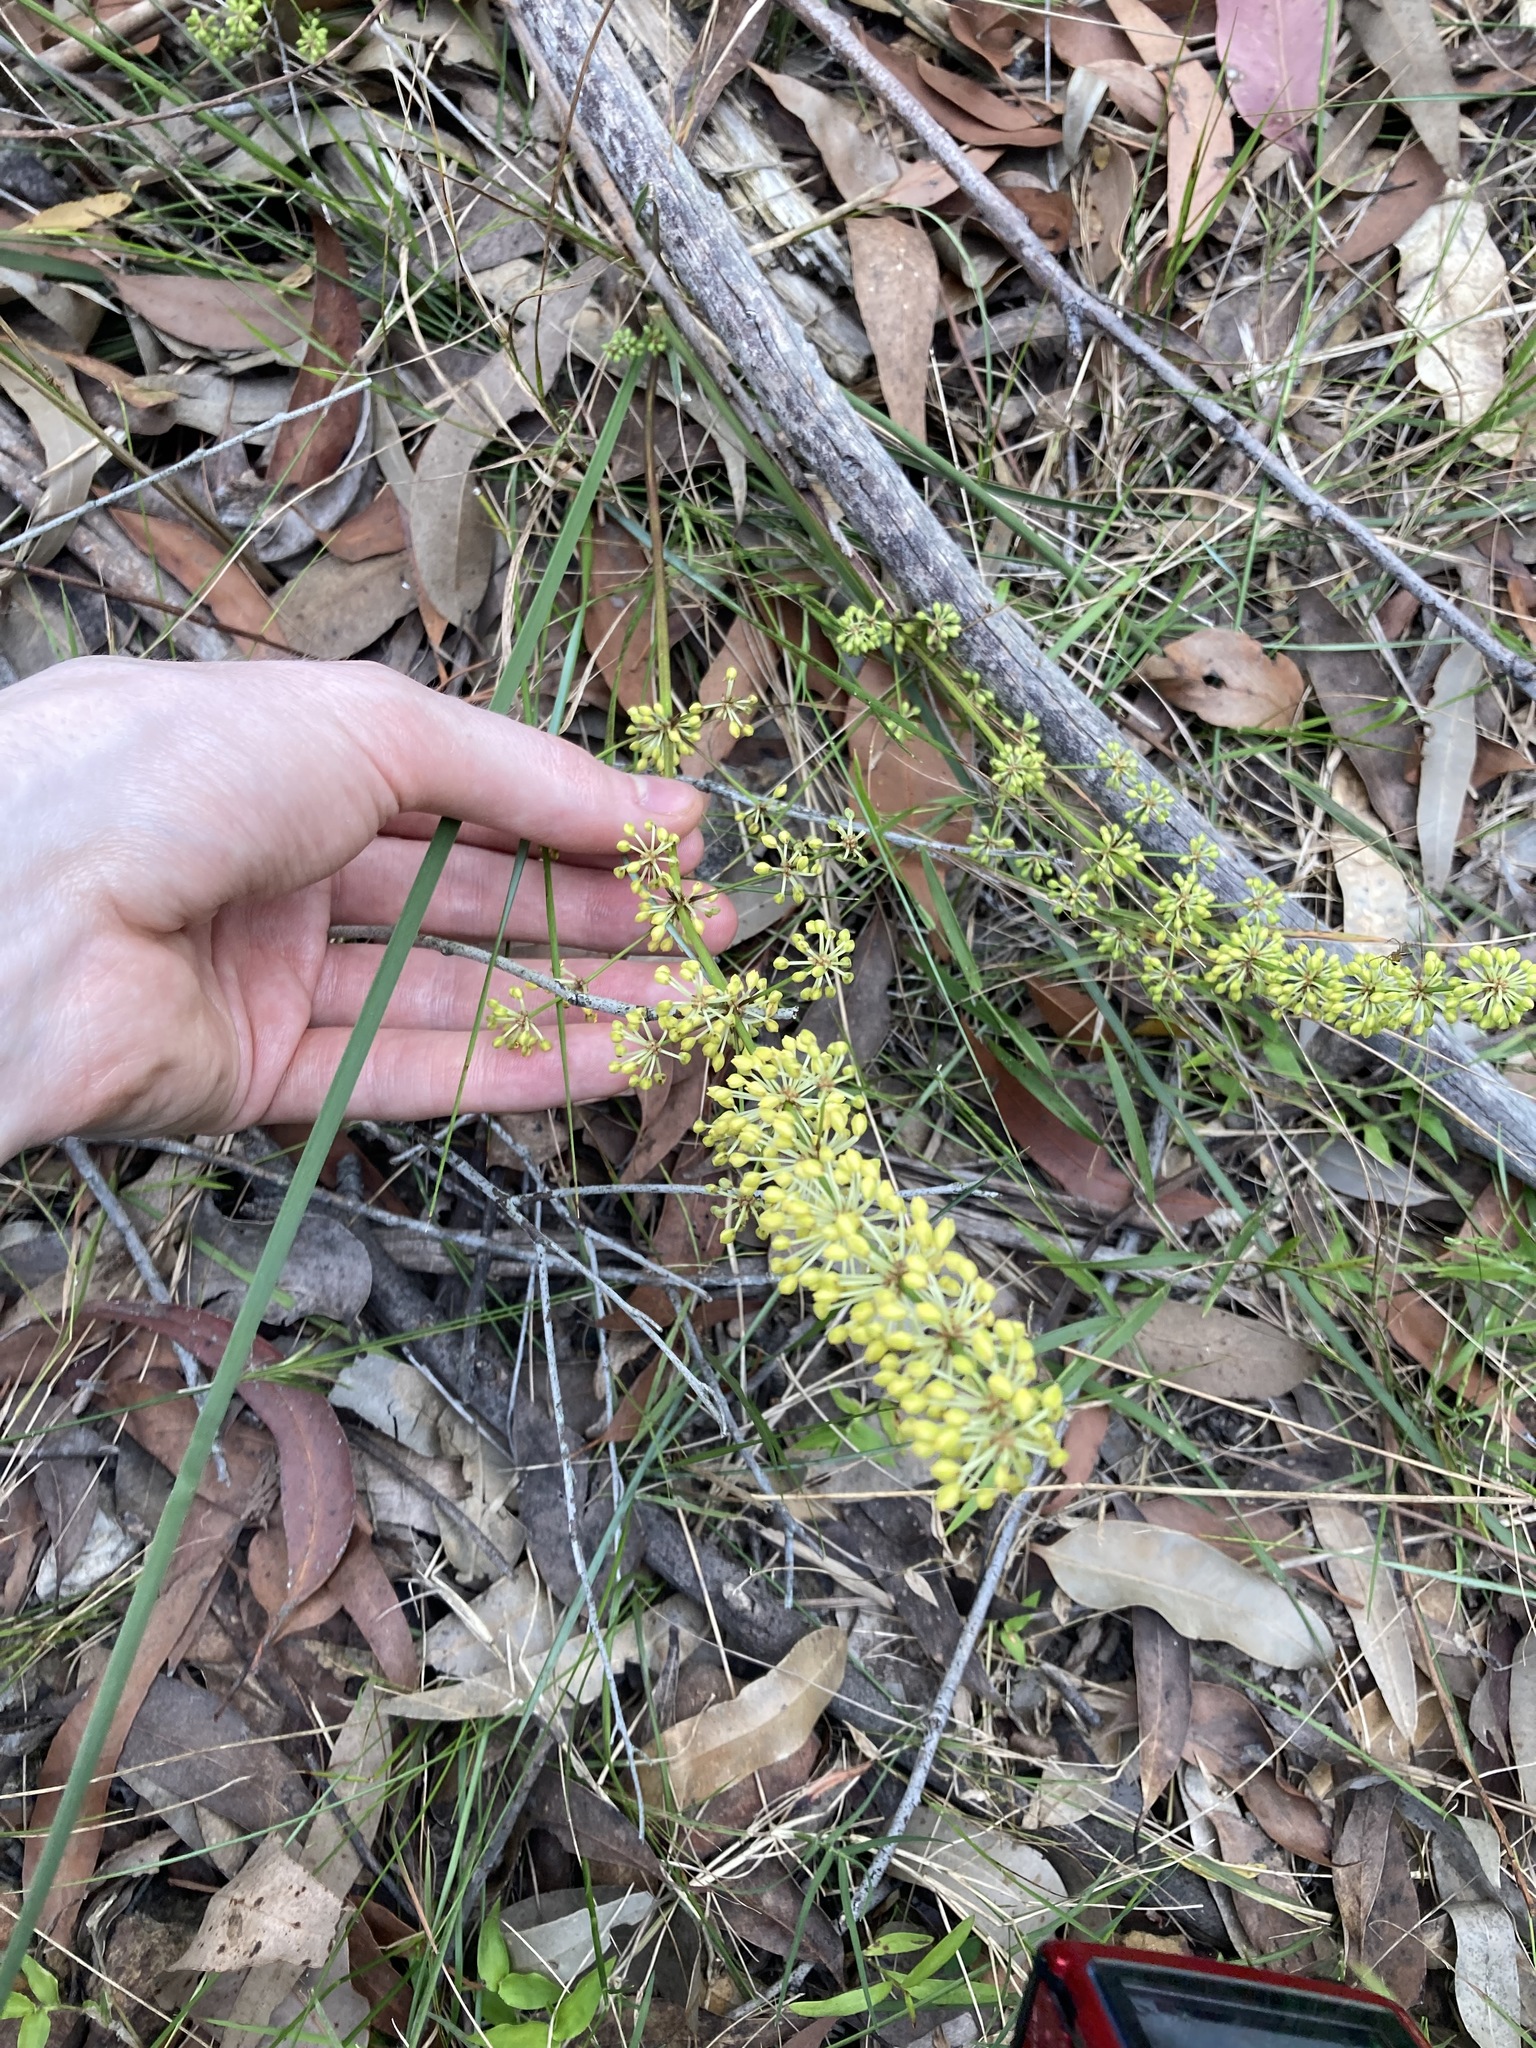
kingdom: Plantae
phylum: Tracheophyta
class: Liliopsida
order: Asparagales
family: Asparagaceae
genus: Lomandra
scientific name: Lomandra multiflora
